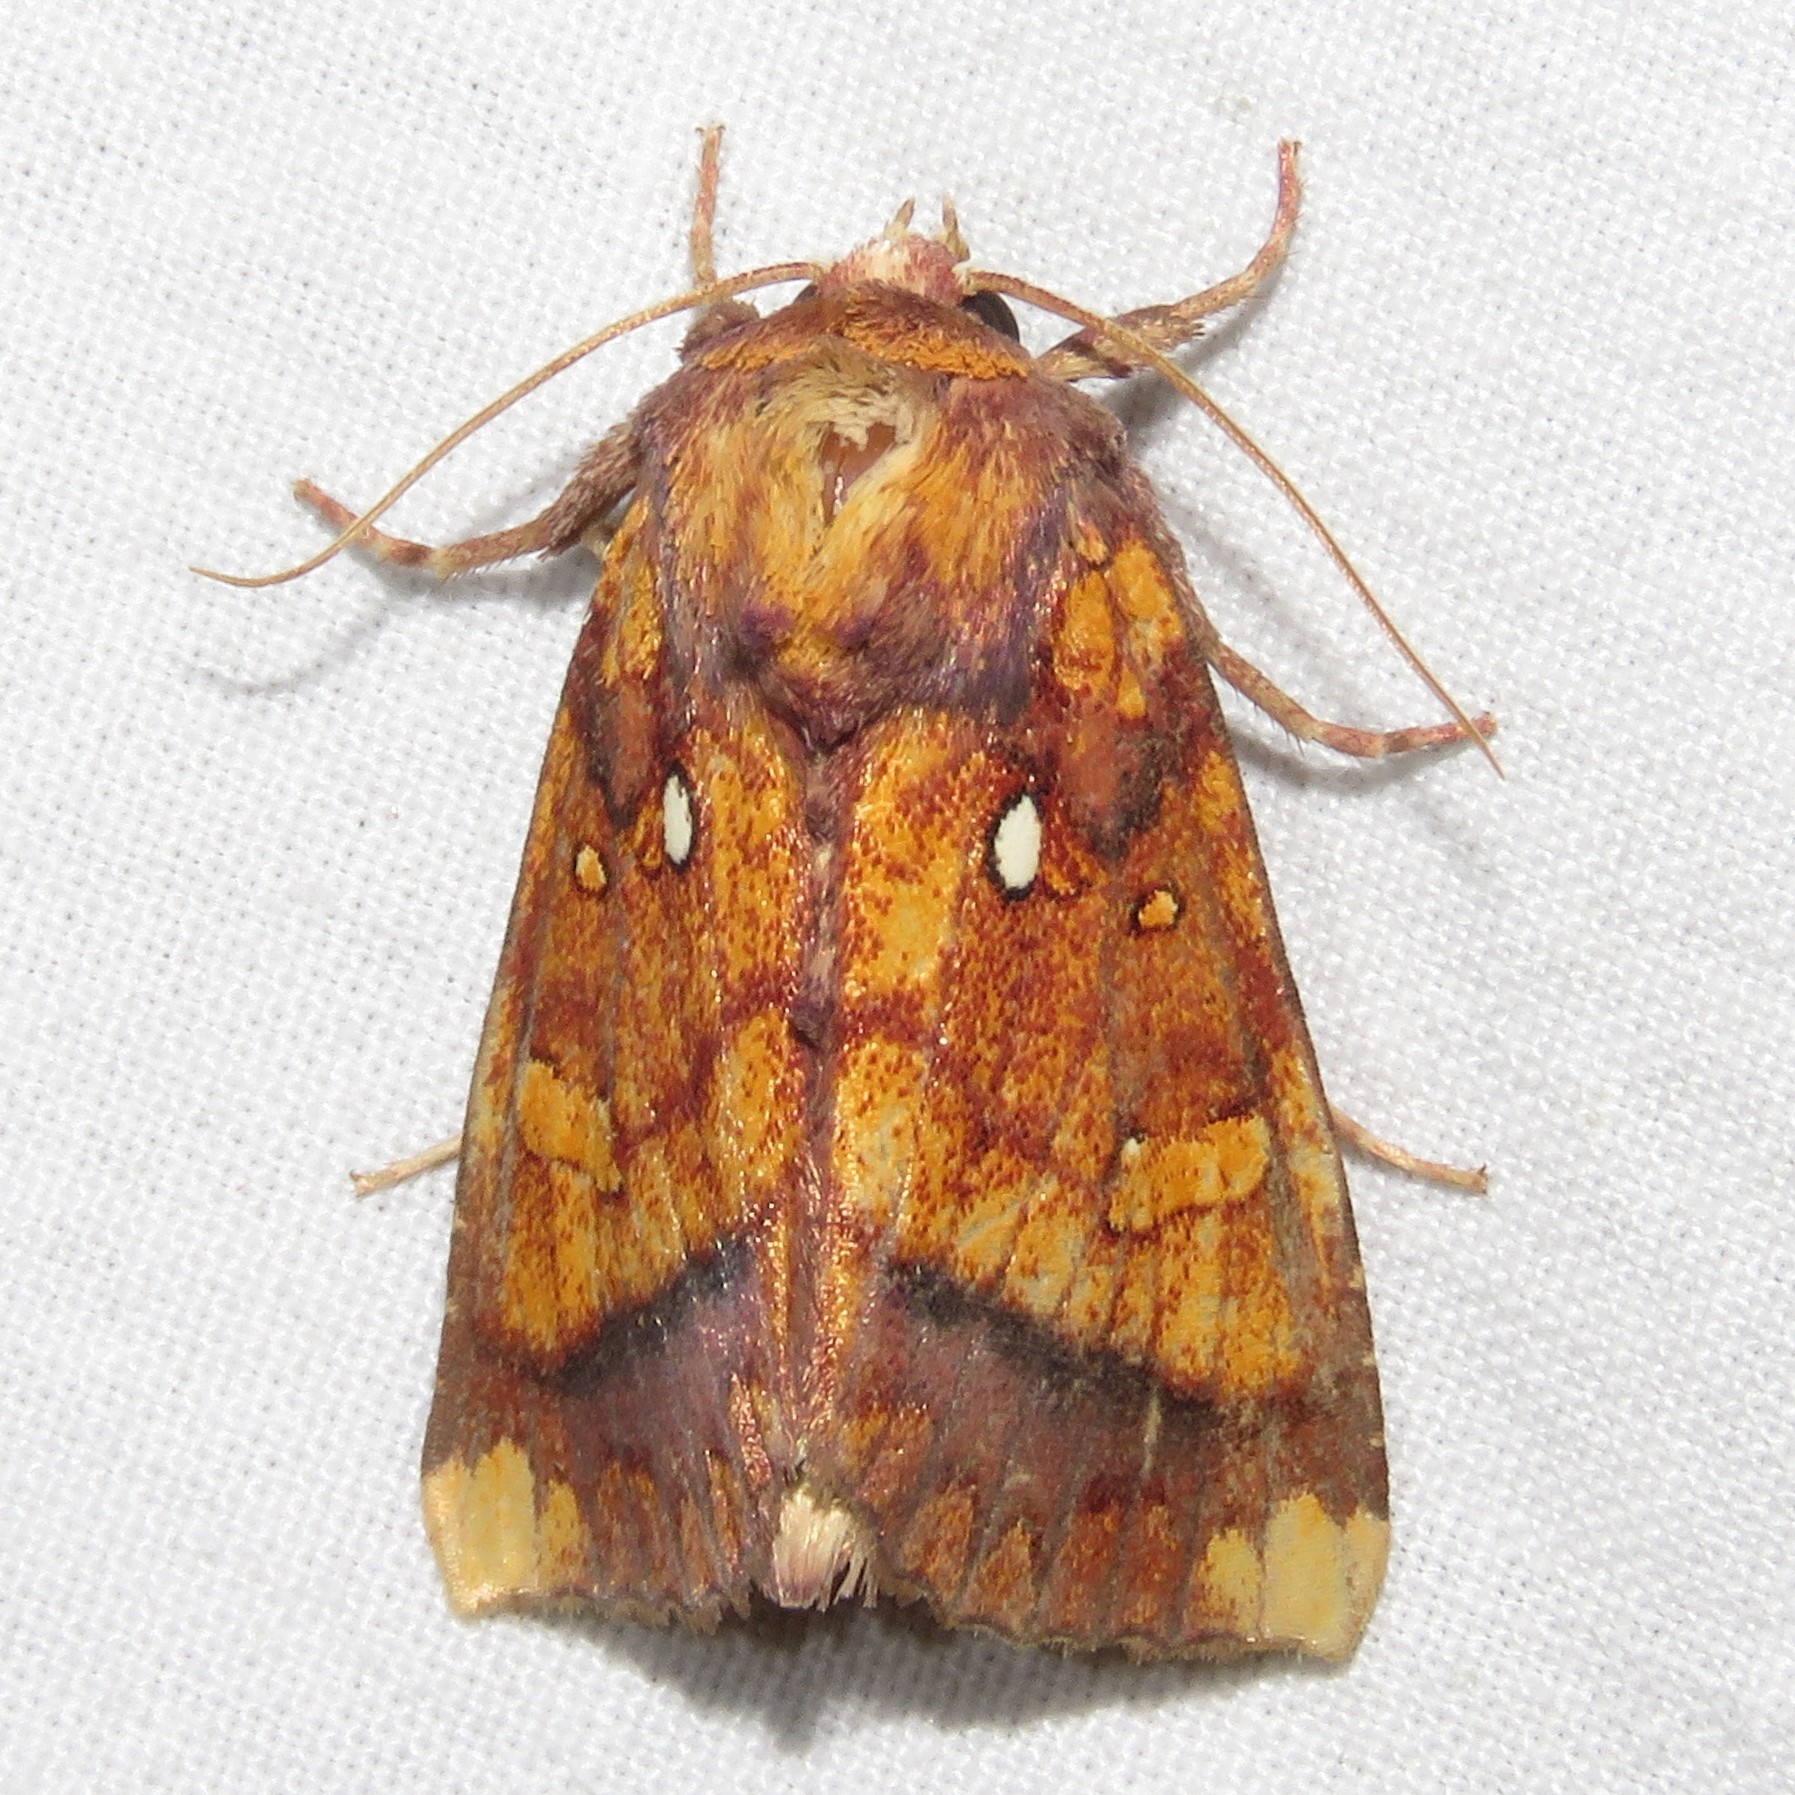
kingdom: Animalia
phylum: Arthropoda
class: Insecta
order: Lepidoptera
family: Noctuidae
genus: Papaipema
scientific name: Papaipema leucostigma
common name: Columbine borer moth
